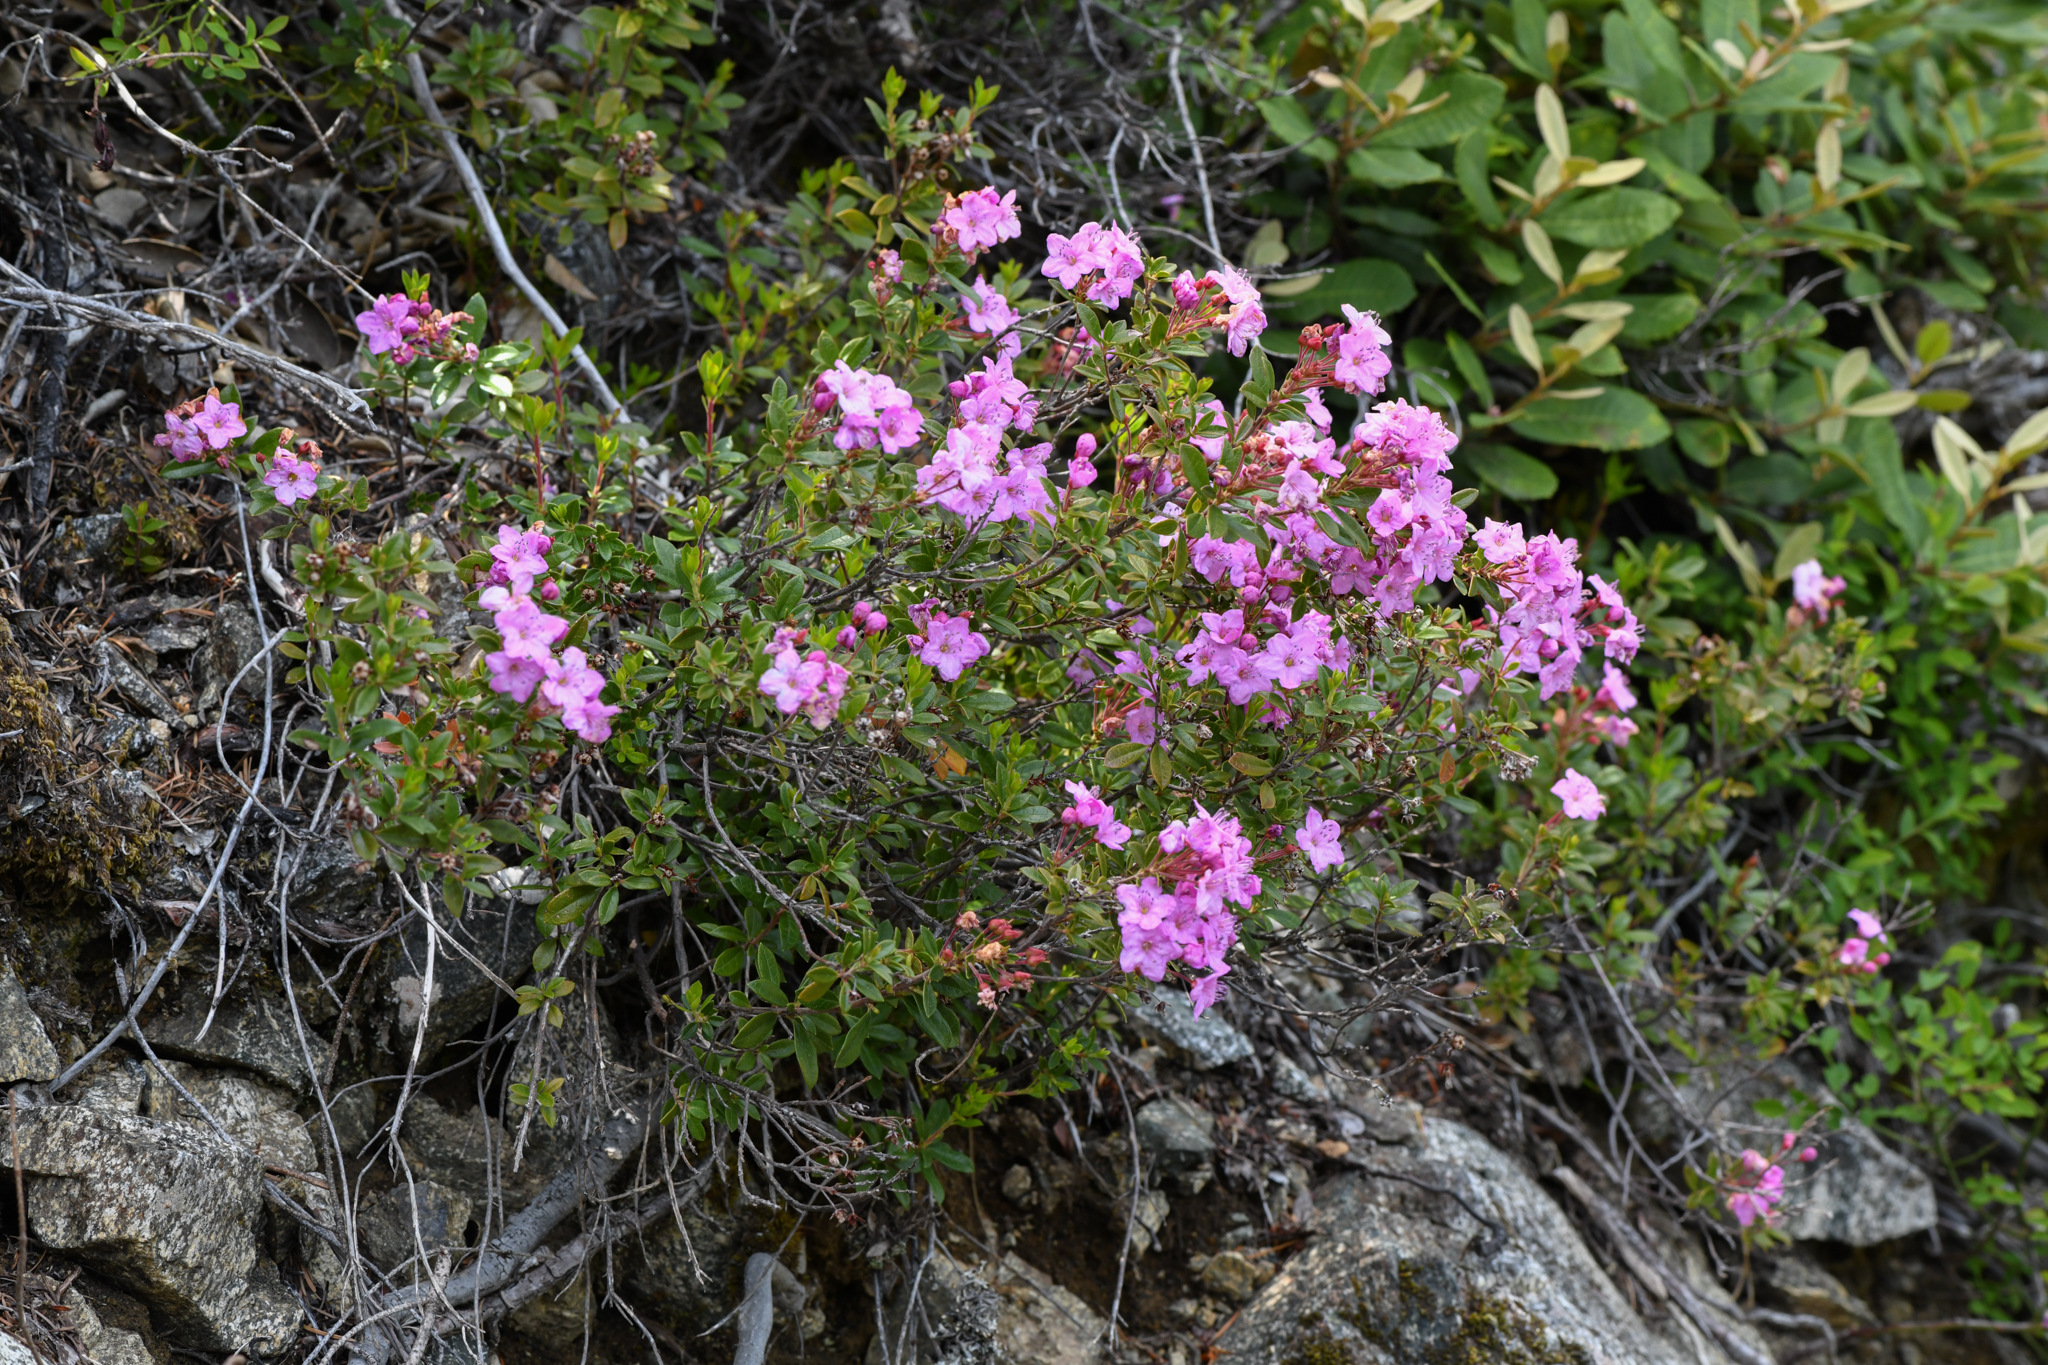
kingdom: Plantae
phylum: Tracheophyta
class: Magnoliopsida
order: Ericales
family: Ericaceae
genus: Kalmiopsis
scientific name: Kalmiopsis leachiana
